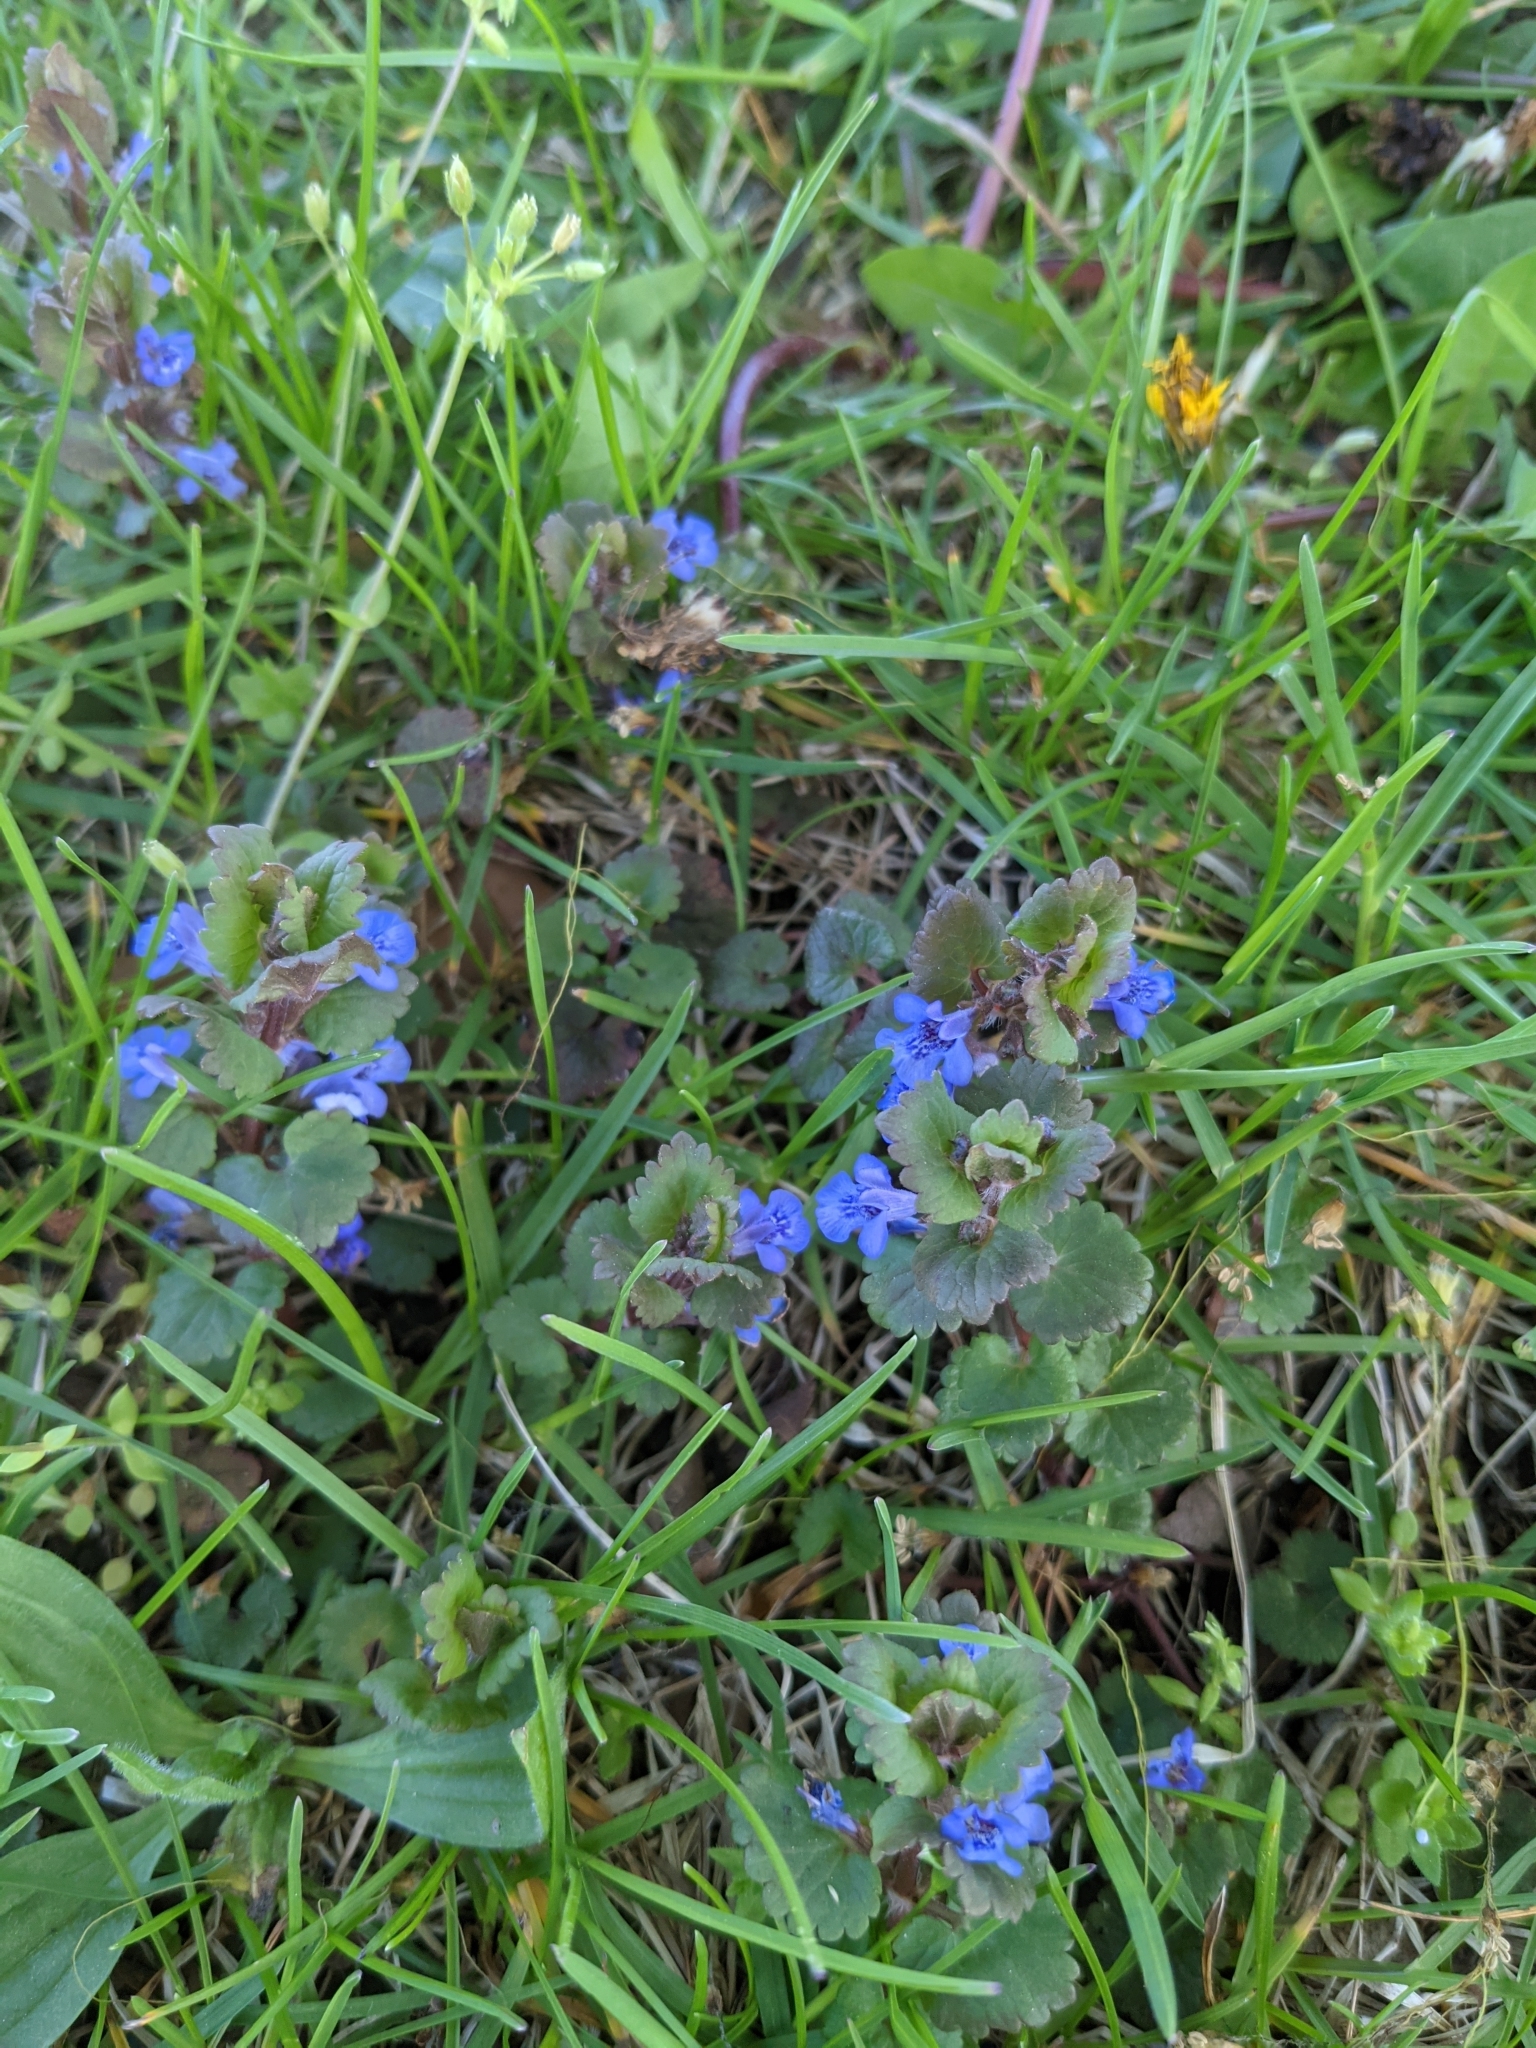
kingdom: Plantae
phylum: Tracheophyta
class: Magnoliopsida
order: Lamiales
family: Lamiaceae
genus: Glechoma
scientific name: Glechoma hederacea
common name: Ground ivy
